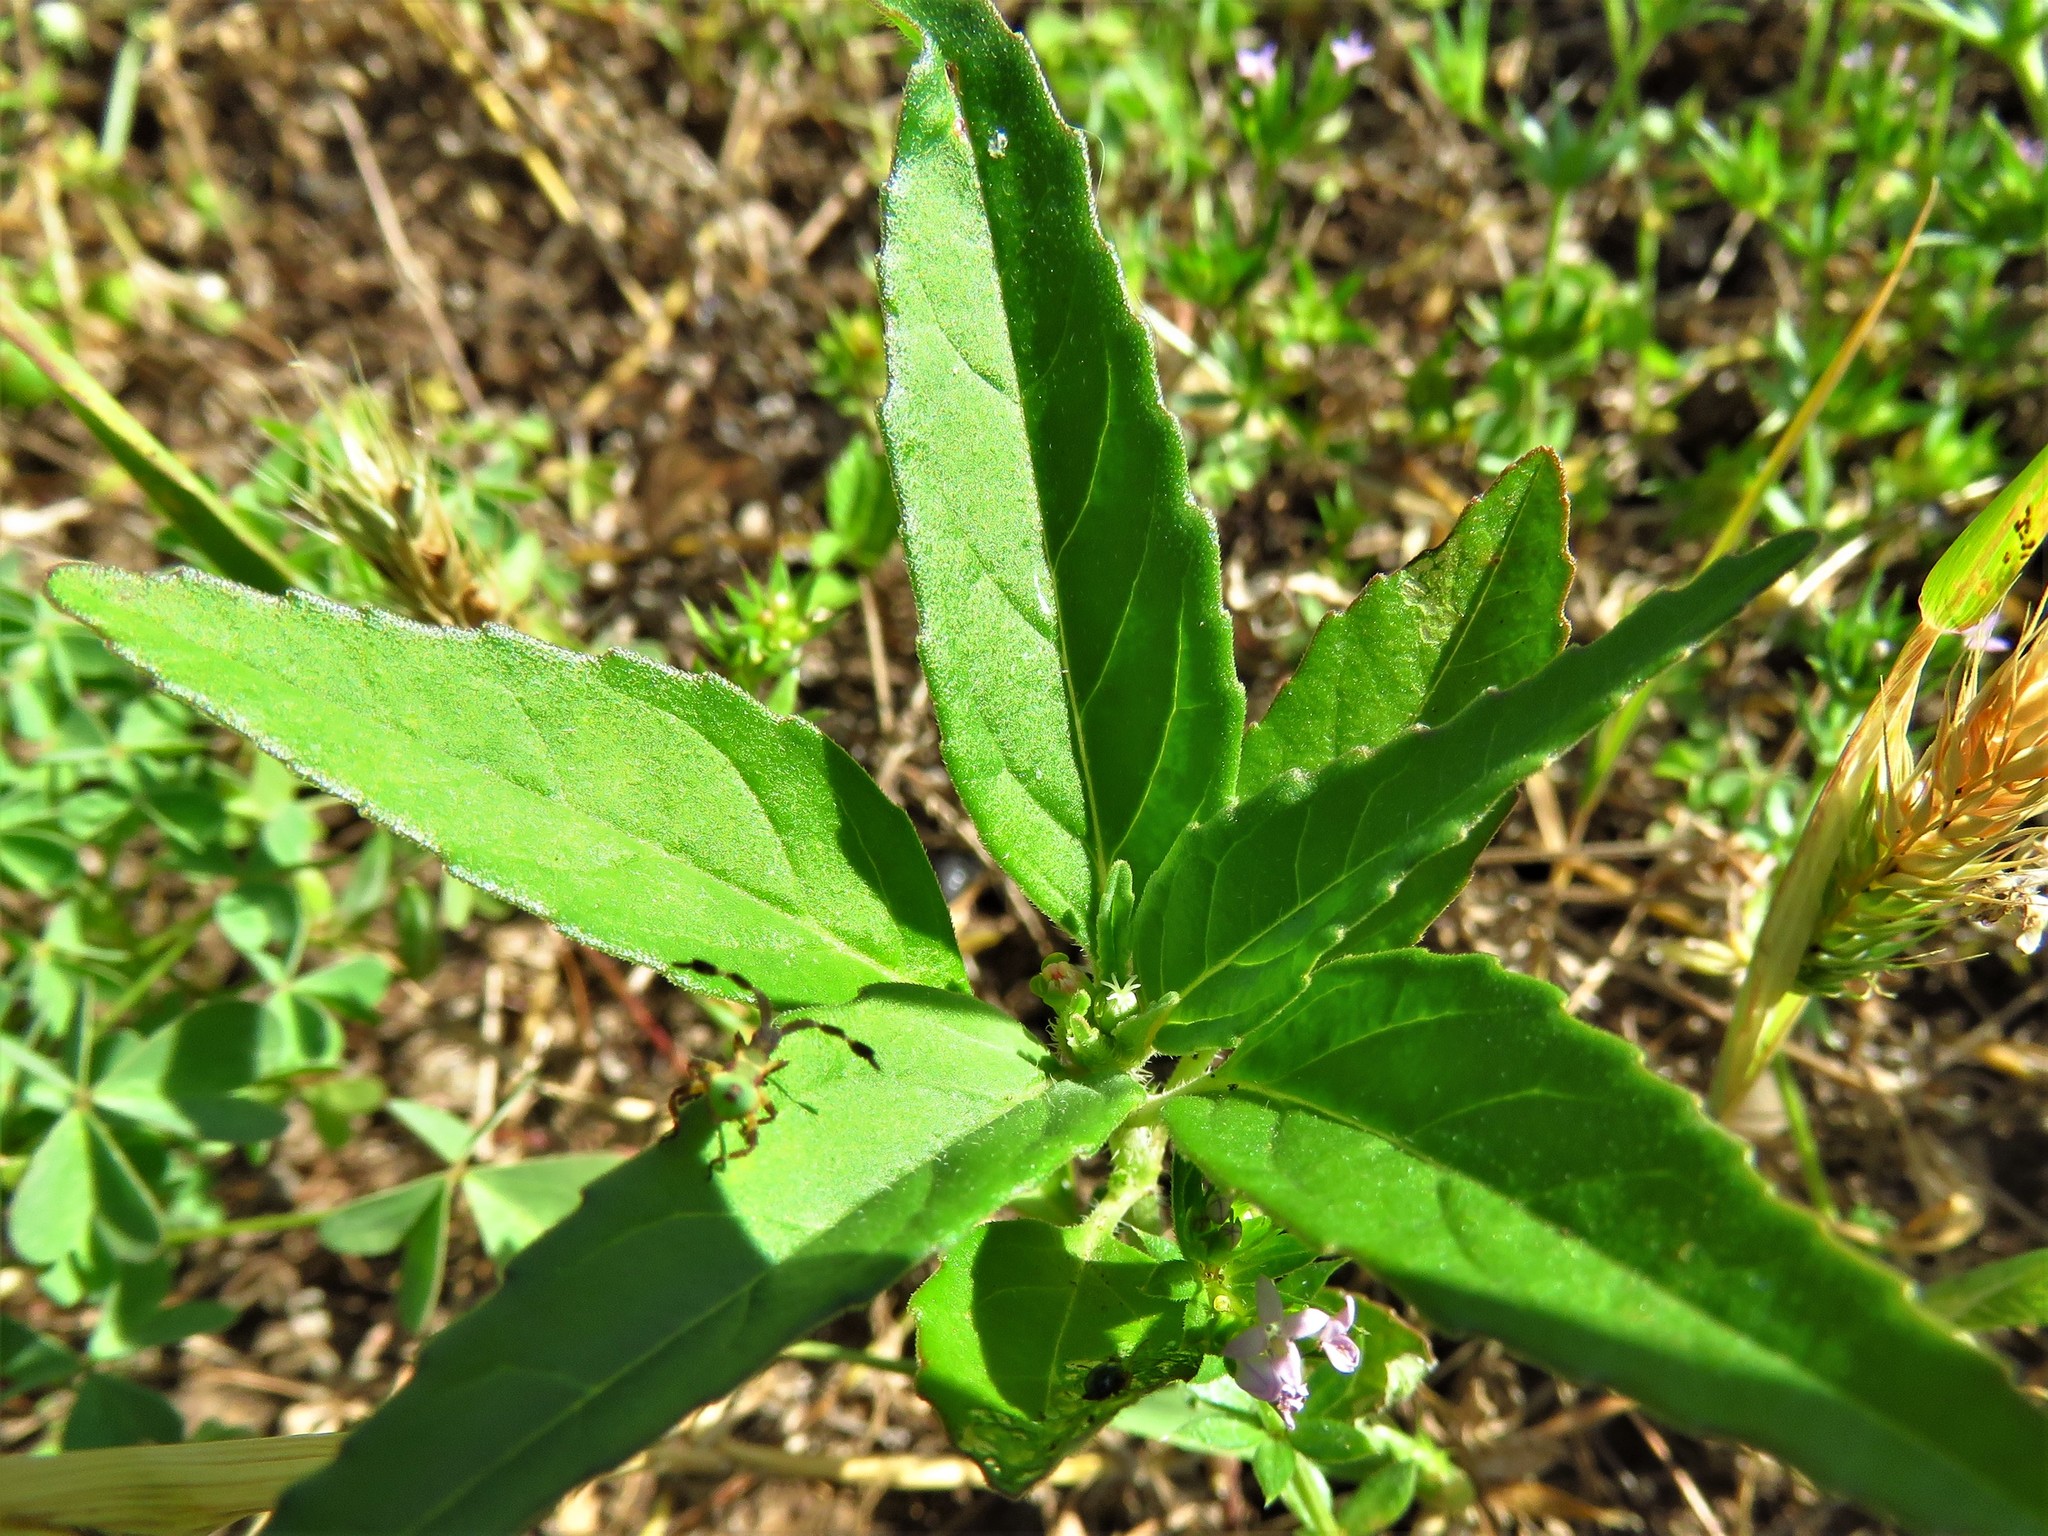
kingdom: Plantae
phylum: Tracheophyta
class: Magnoliopsida
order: Malpighiales
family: Euphorbiaceae
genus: Euphorbia
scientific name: Euphorbia dentata
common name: Dentate spurge
